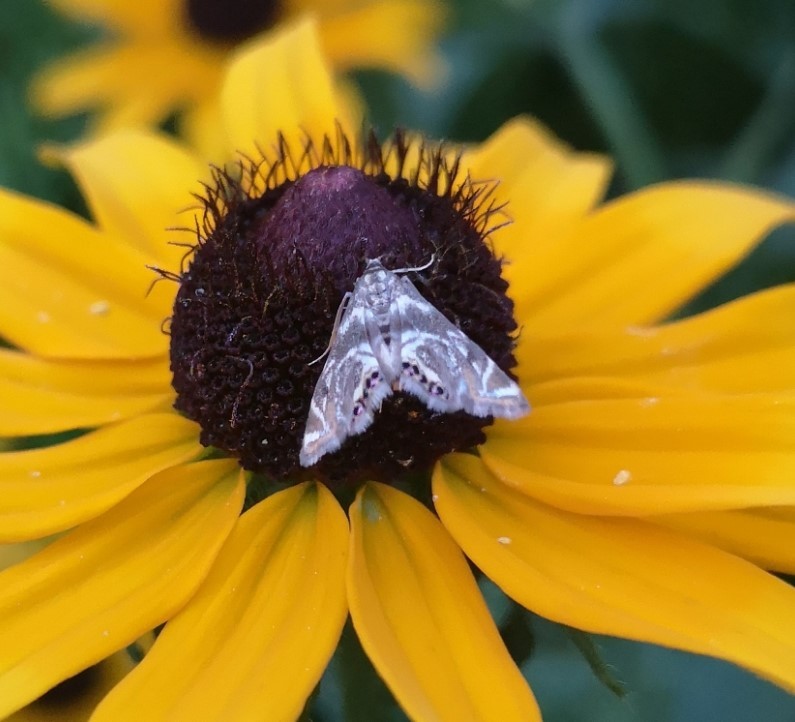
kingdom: Animalia
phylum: Arthropoda
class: Insecta
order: Lepidoptera
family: Crambidae
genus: Petrophila
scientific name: Petrophila canadensis
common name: Canadian petrophila
